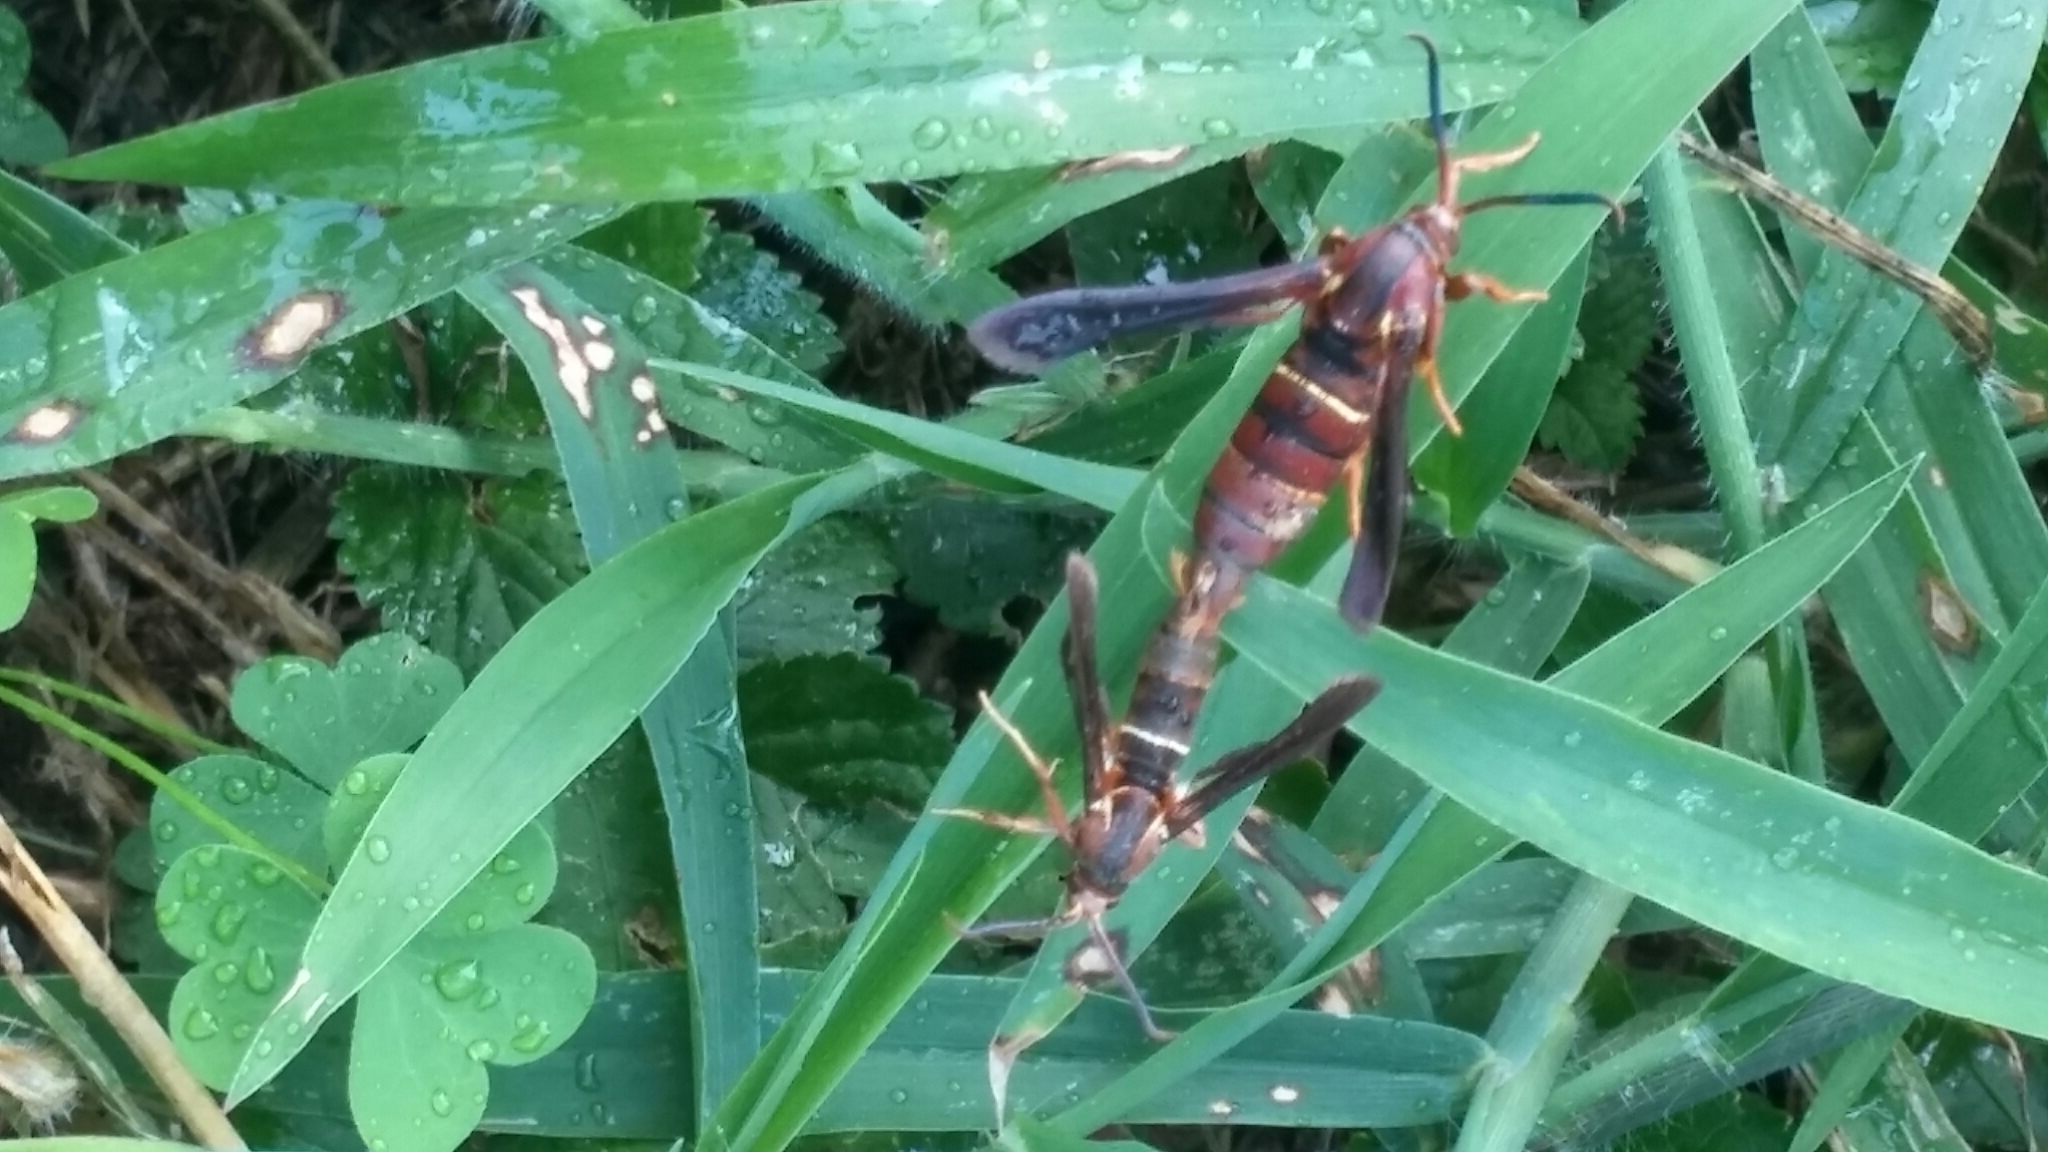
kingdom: Animalia
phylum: Arthropoda
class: Insecta
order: Lepidoptera
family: Sesiidae
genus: Vitacea
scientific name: Vitacea polistiformis
